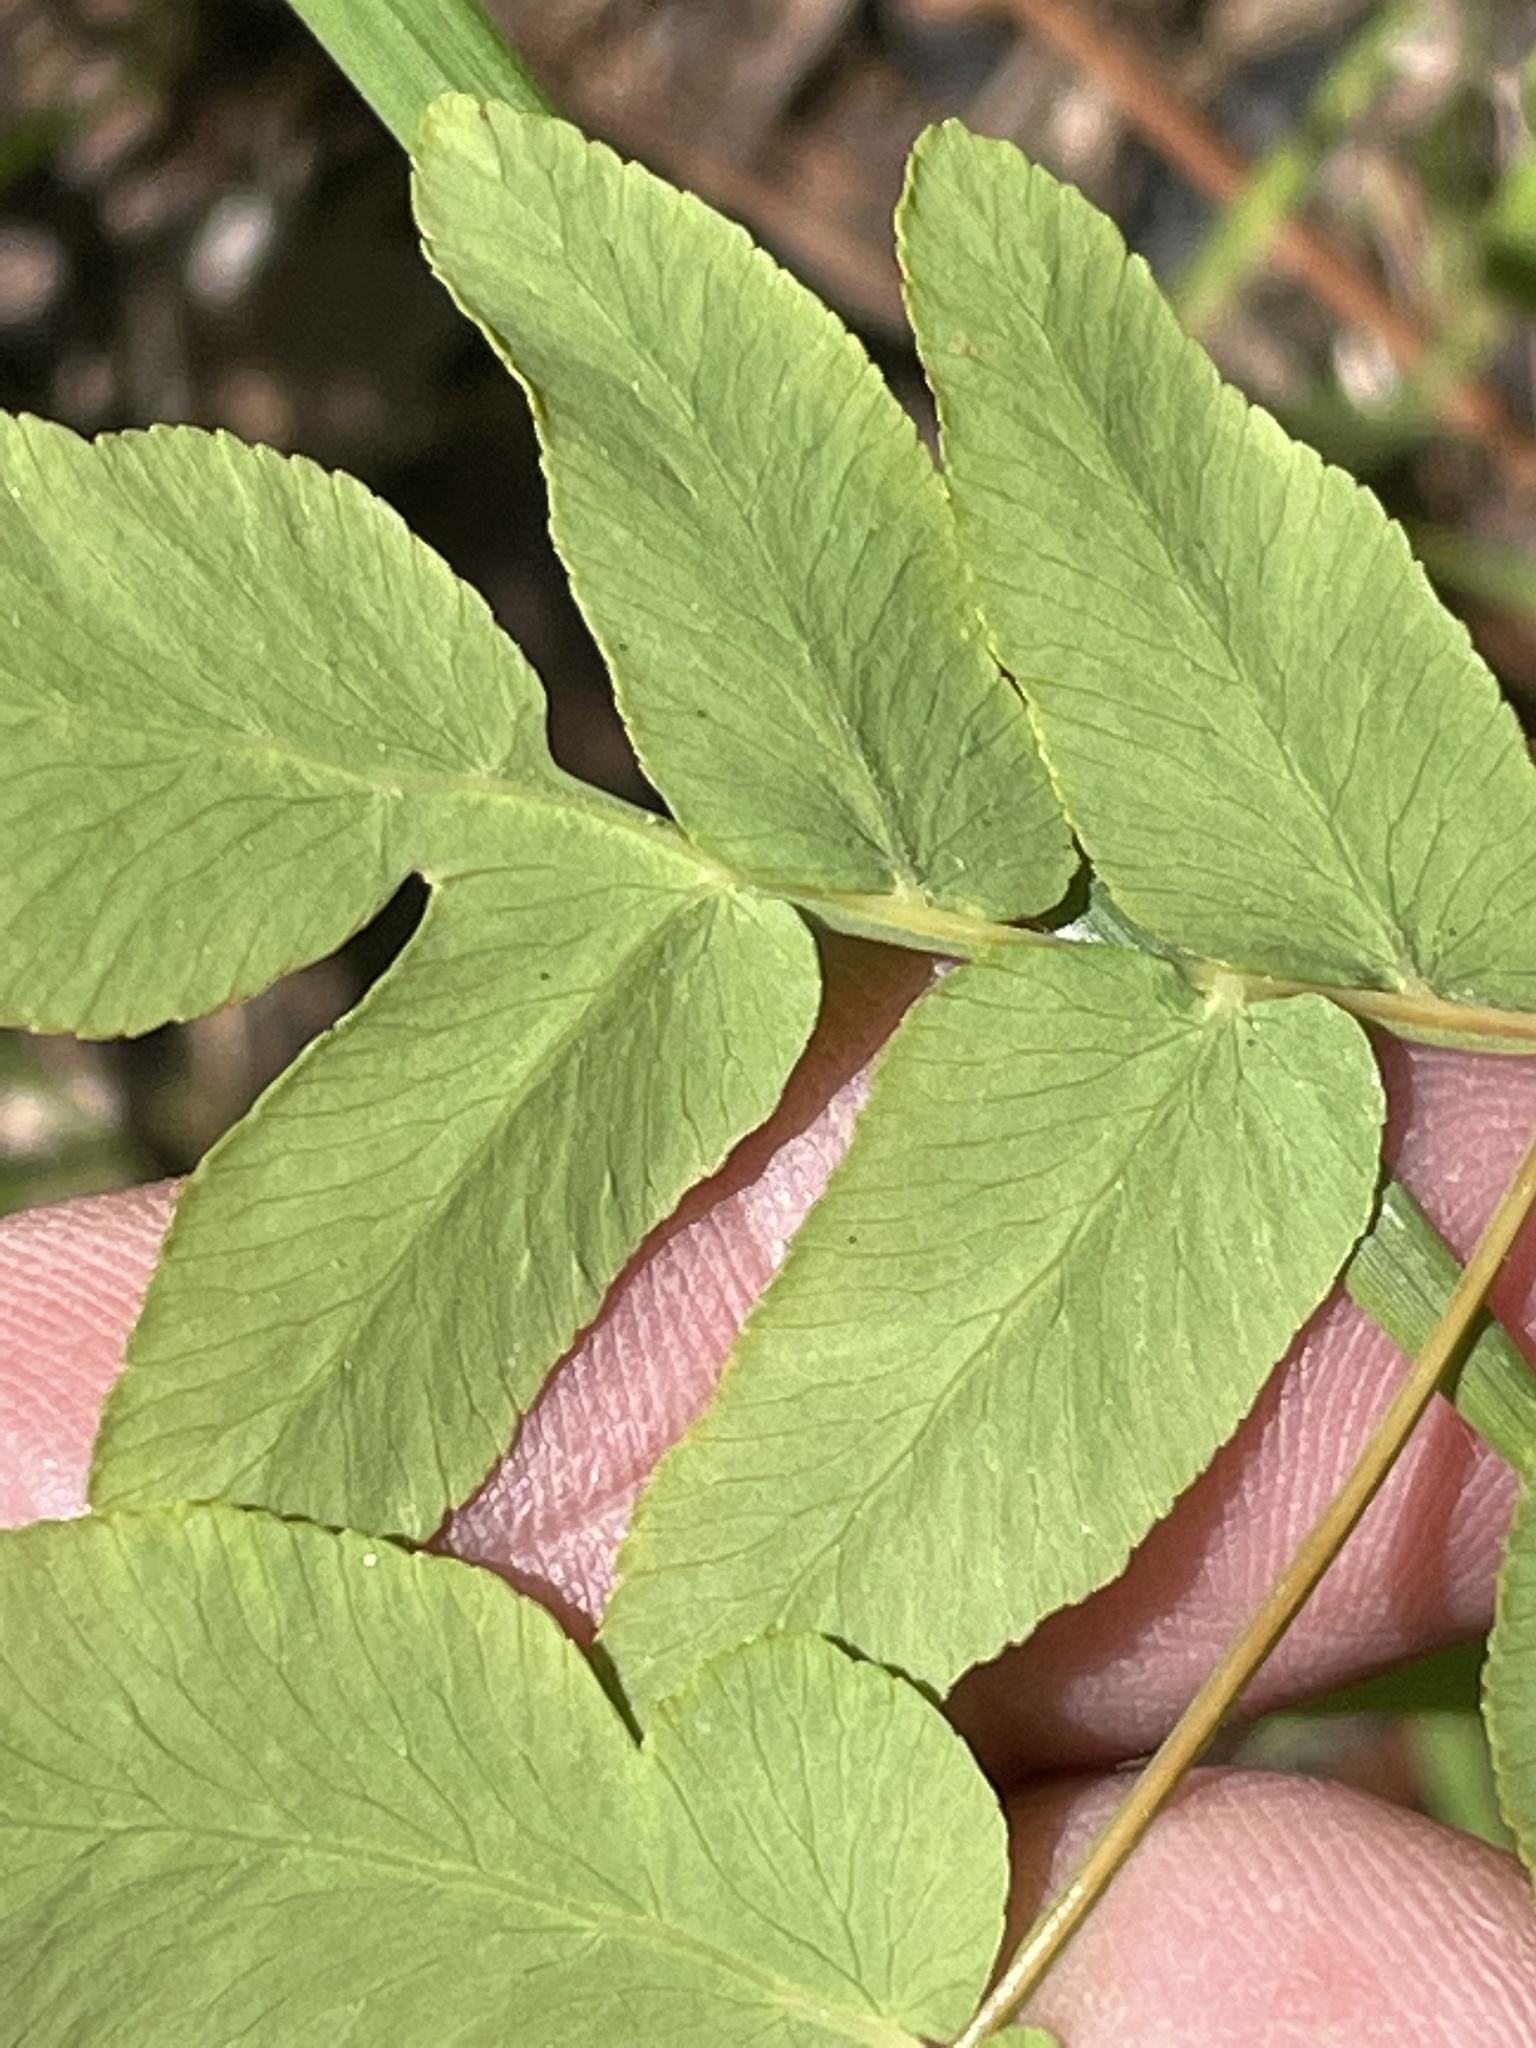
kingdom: Plantae
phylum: Tracheophyta
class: Polypodiopsida
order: Osmundales
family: Osmundaceae
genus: Osmunda
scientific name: Osmunda spectabilis
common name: American royal fern
